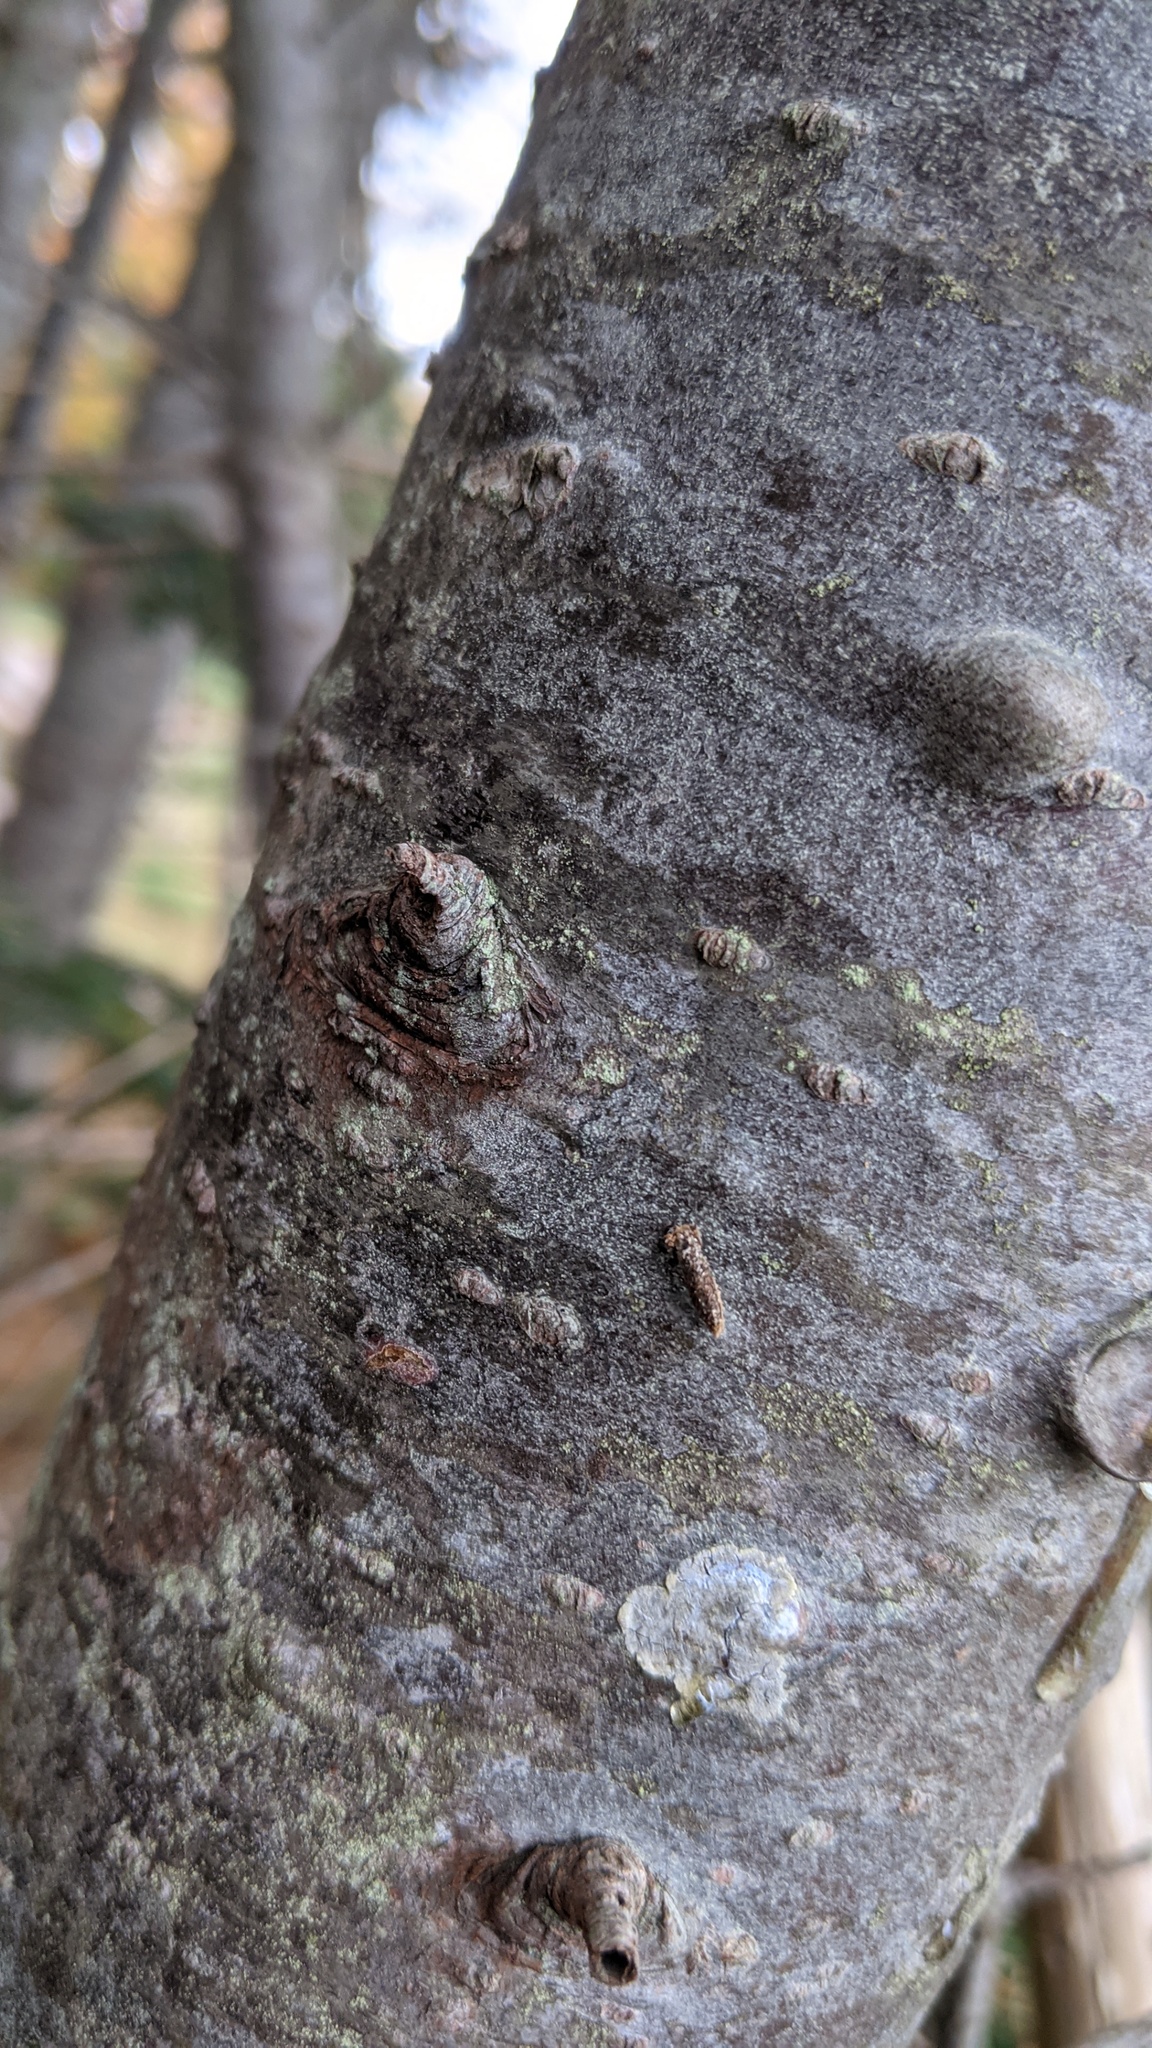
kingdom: Plantae
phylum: Tracheophyta
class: Pinopsida
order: Pinales
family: Pinaceae
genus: Abies
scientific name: Abies balsamea
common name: Balsam fir
